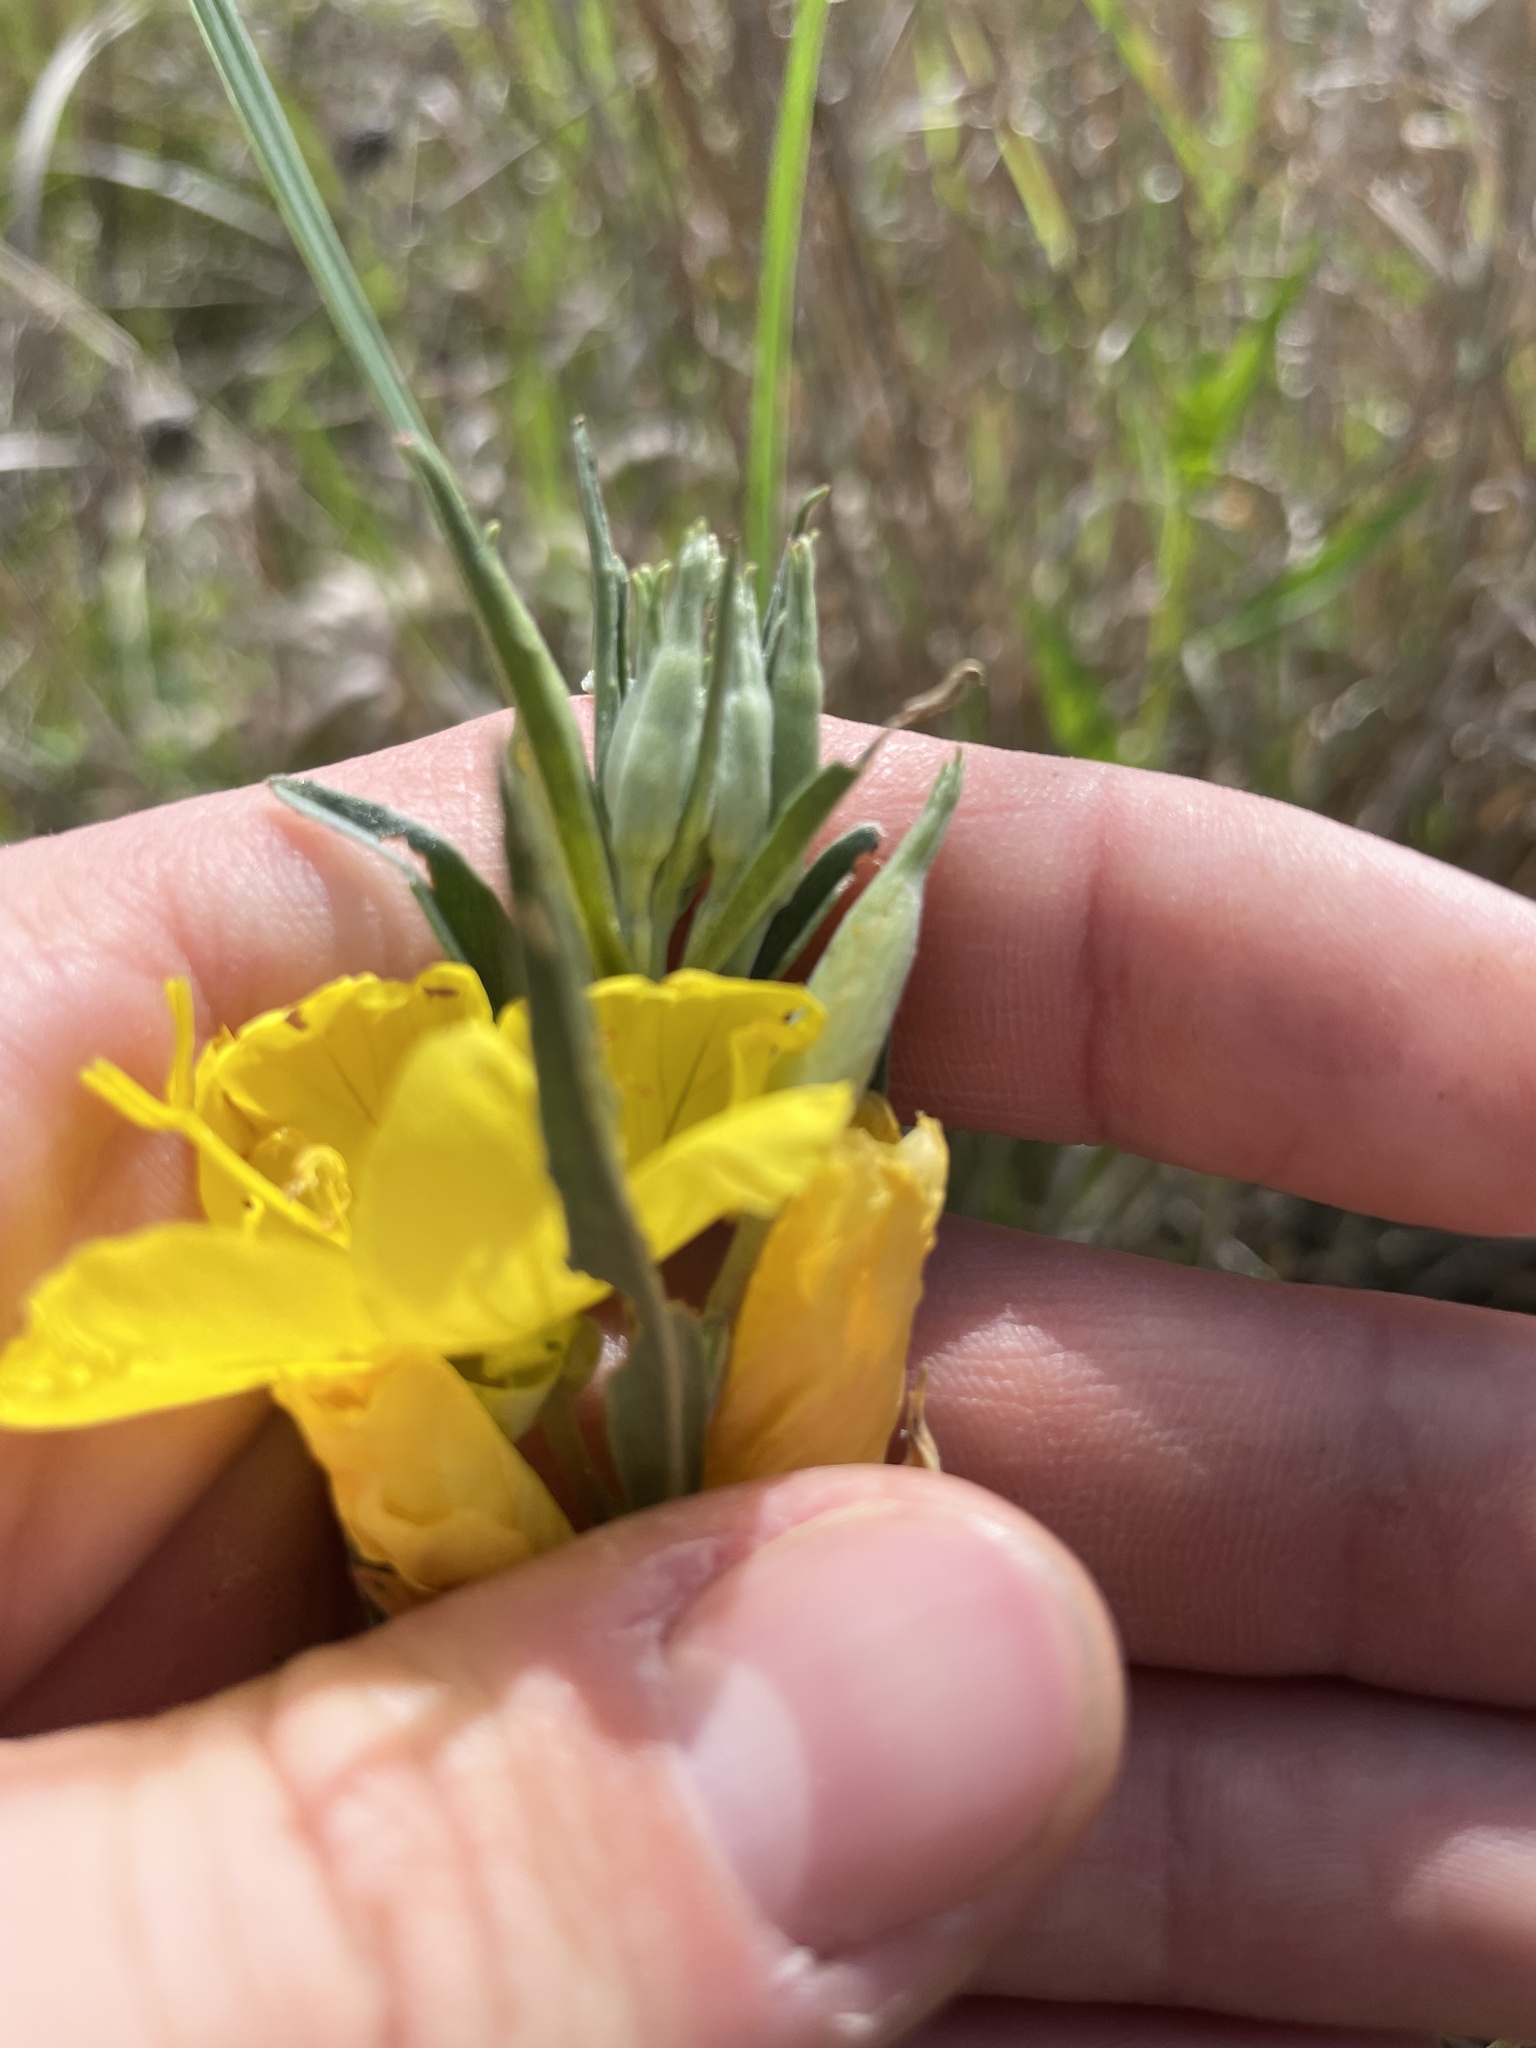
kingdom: Plantae
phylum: Tracheophyta
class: Magnoliopsida
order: Myrtales
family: Onagraceae
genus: Oenothera
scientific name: Oenothera fruticosa
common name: Southern sundrops
